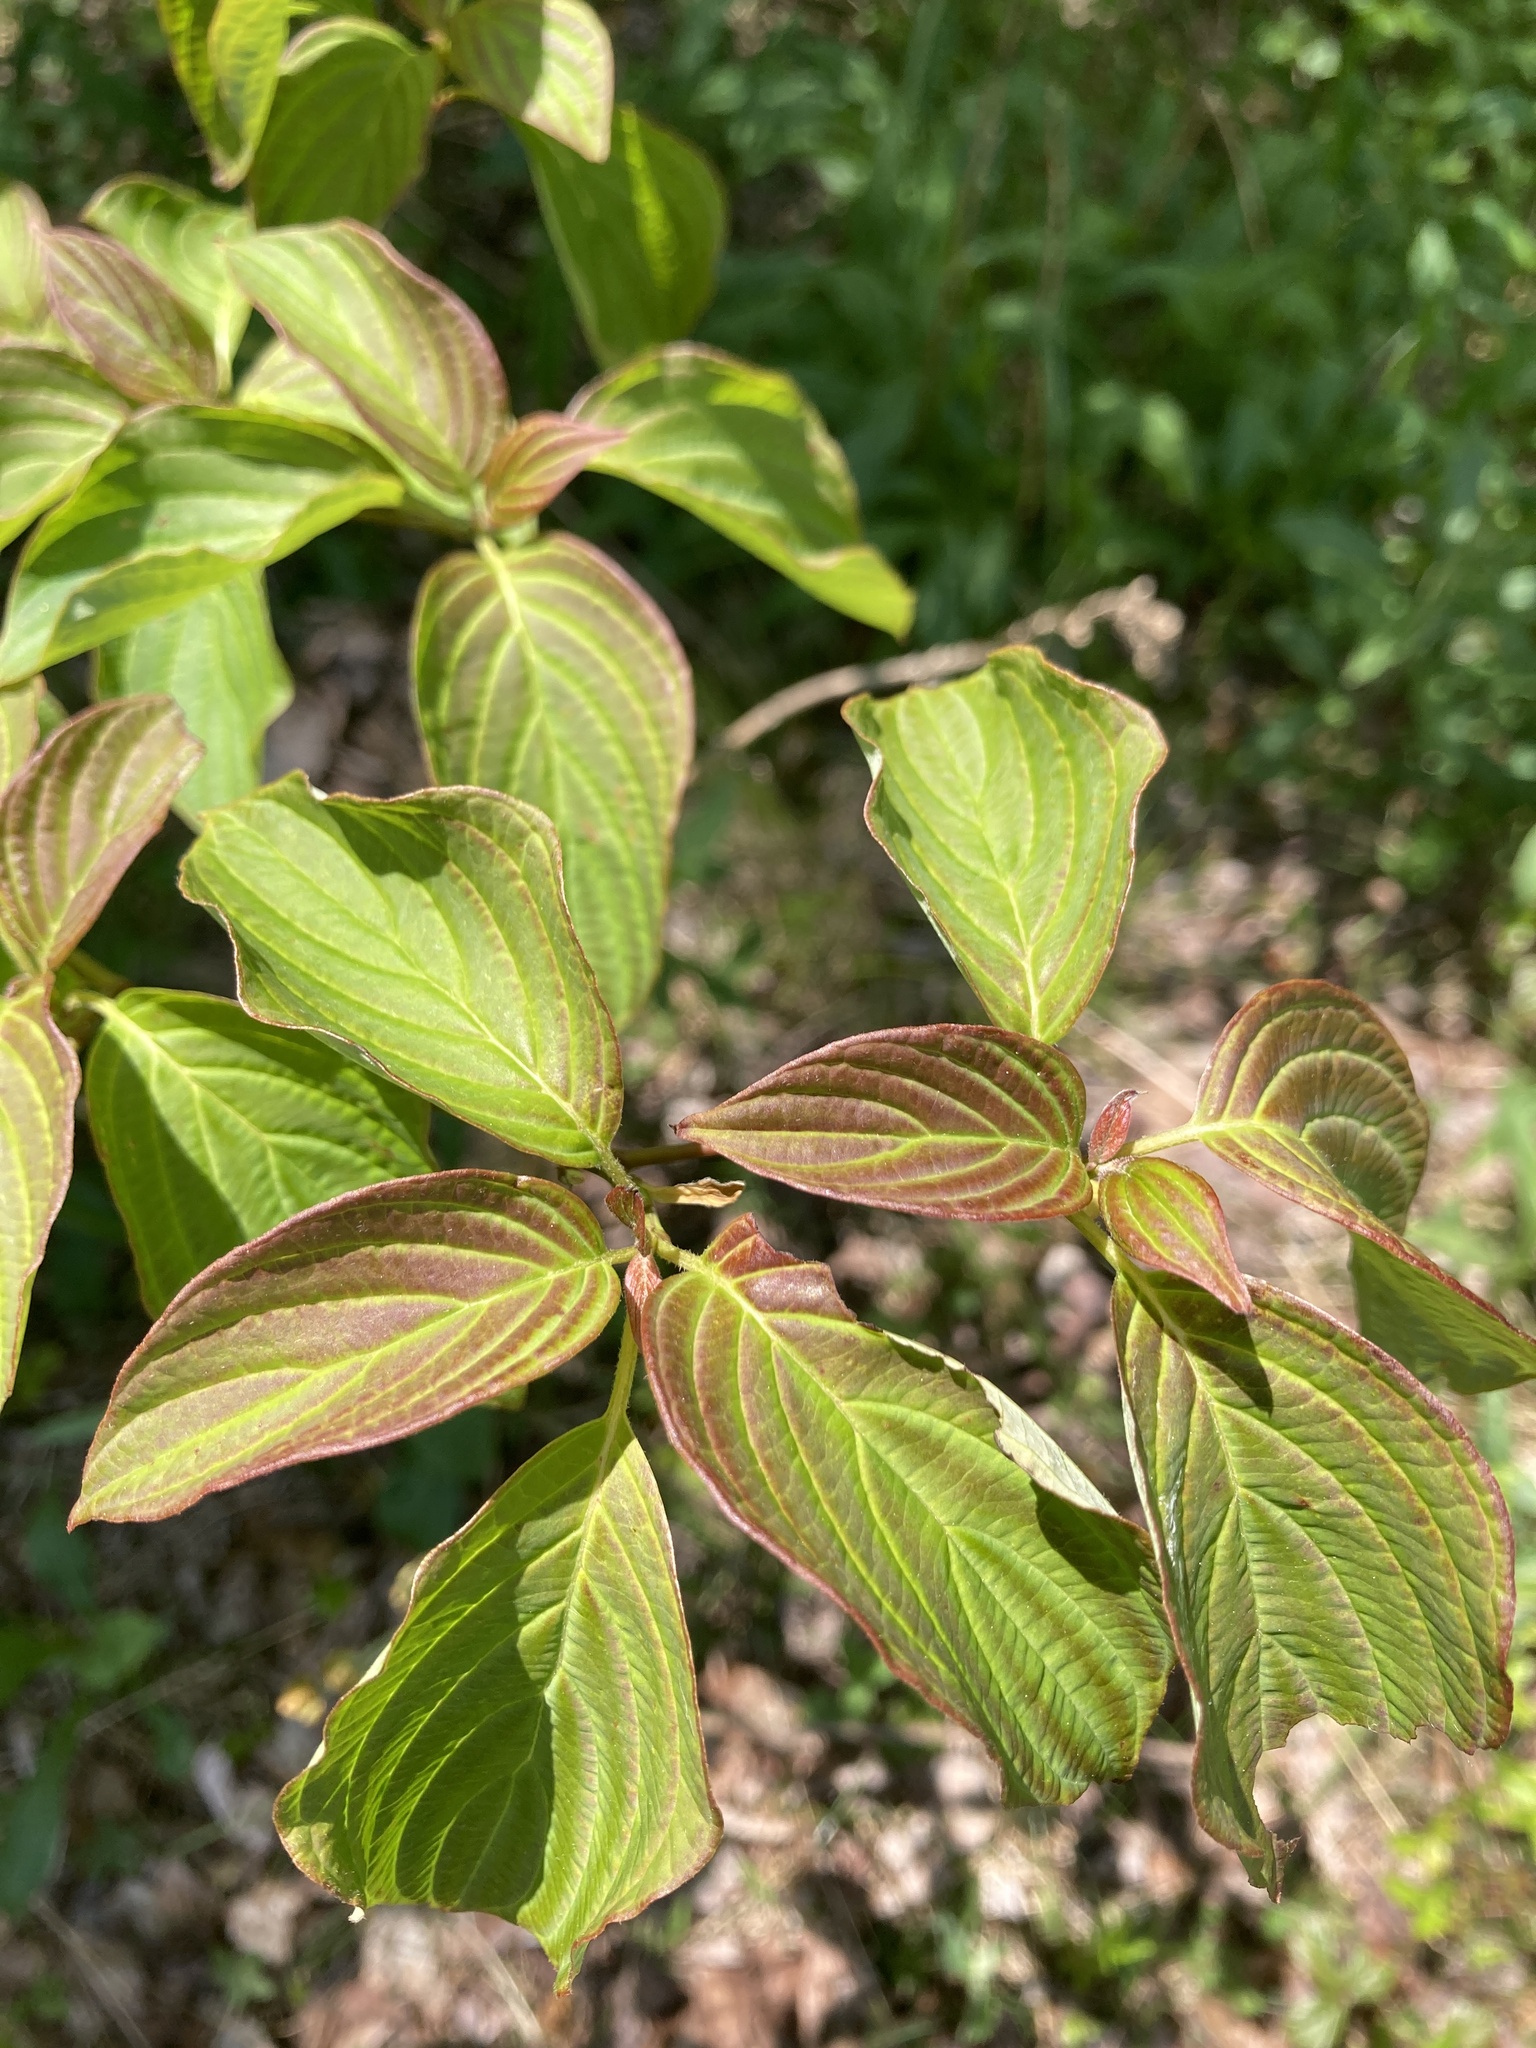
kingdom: Plantae
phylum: Tracheophyta
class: Magnoliopsida
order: Cornales
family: Cornaceae
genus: Cornus
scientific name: Cornus alternifolia
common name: Pagoda dogwood
